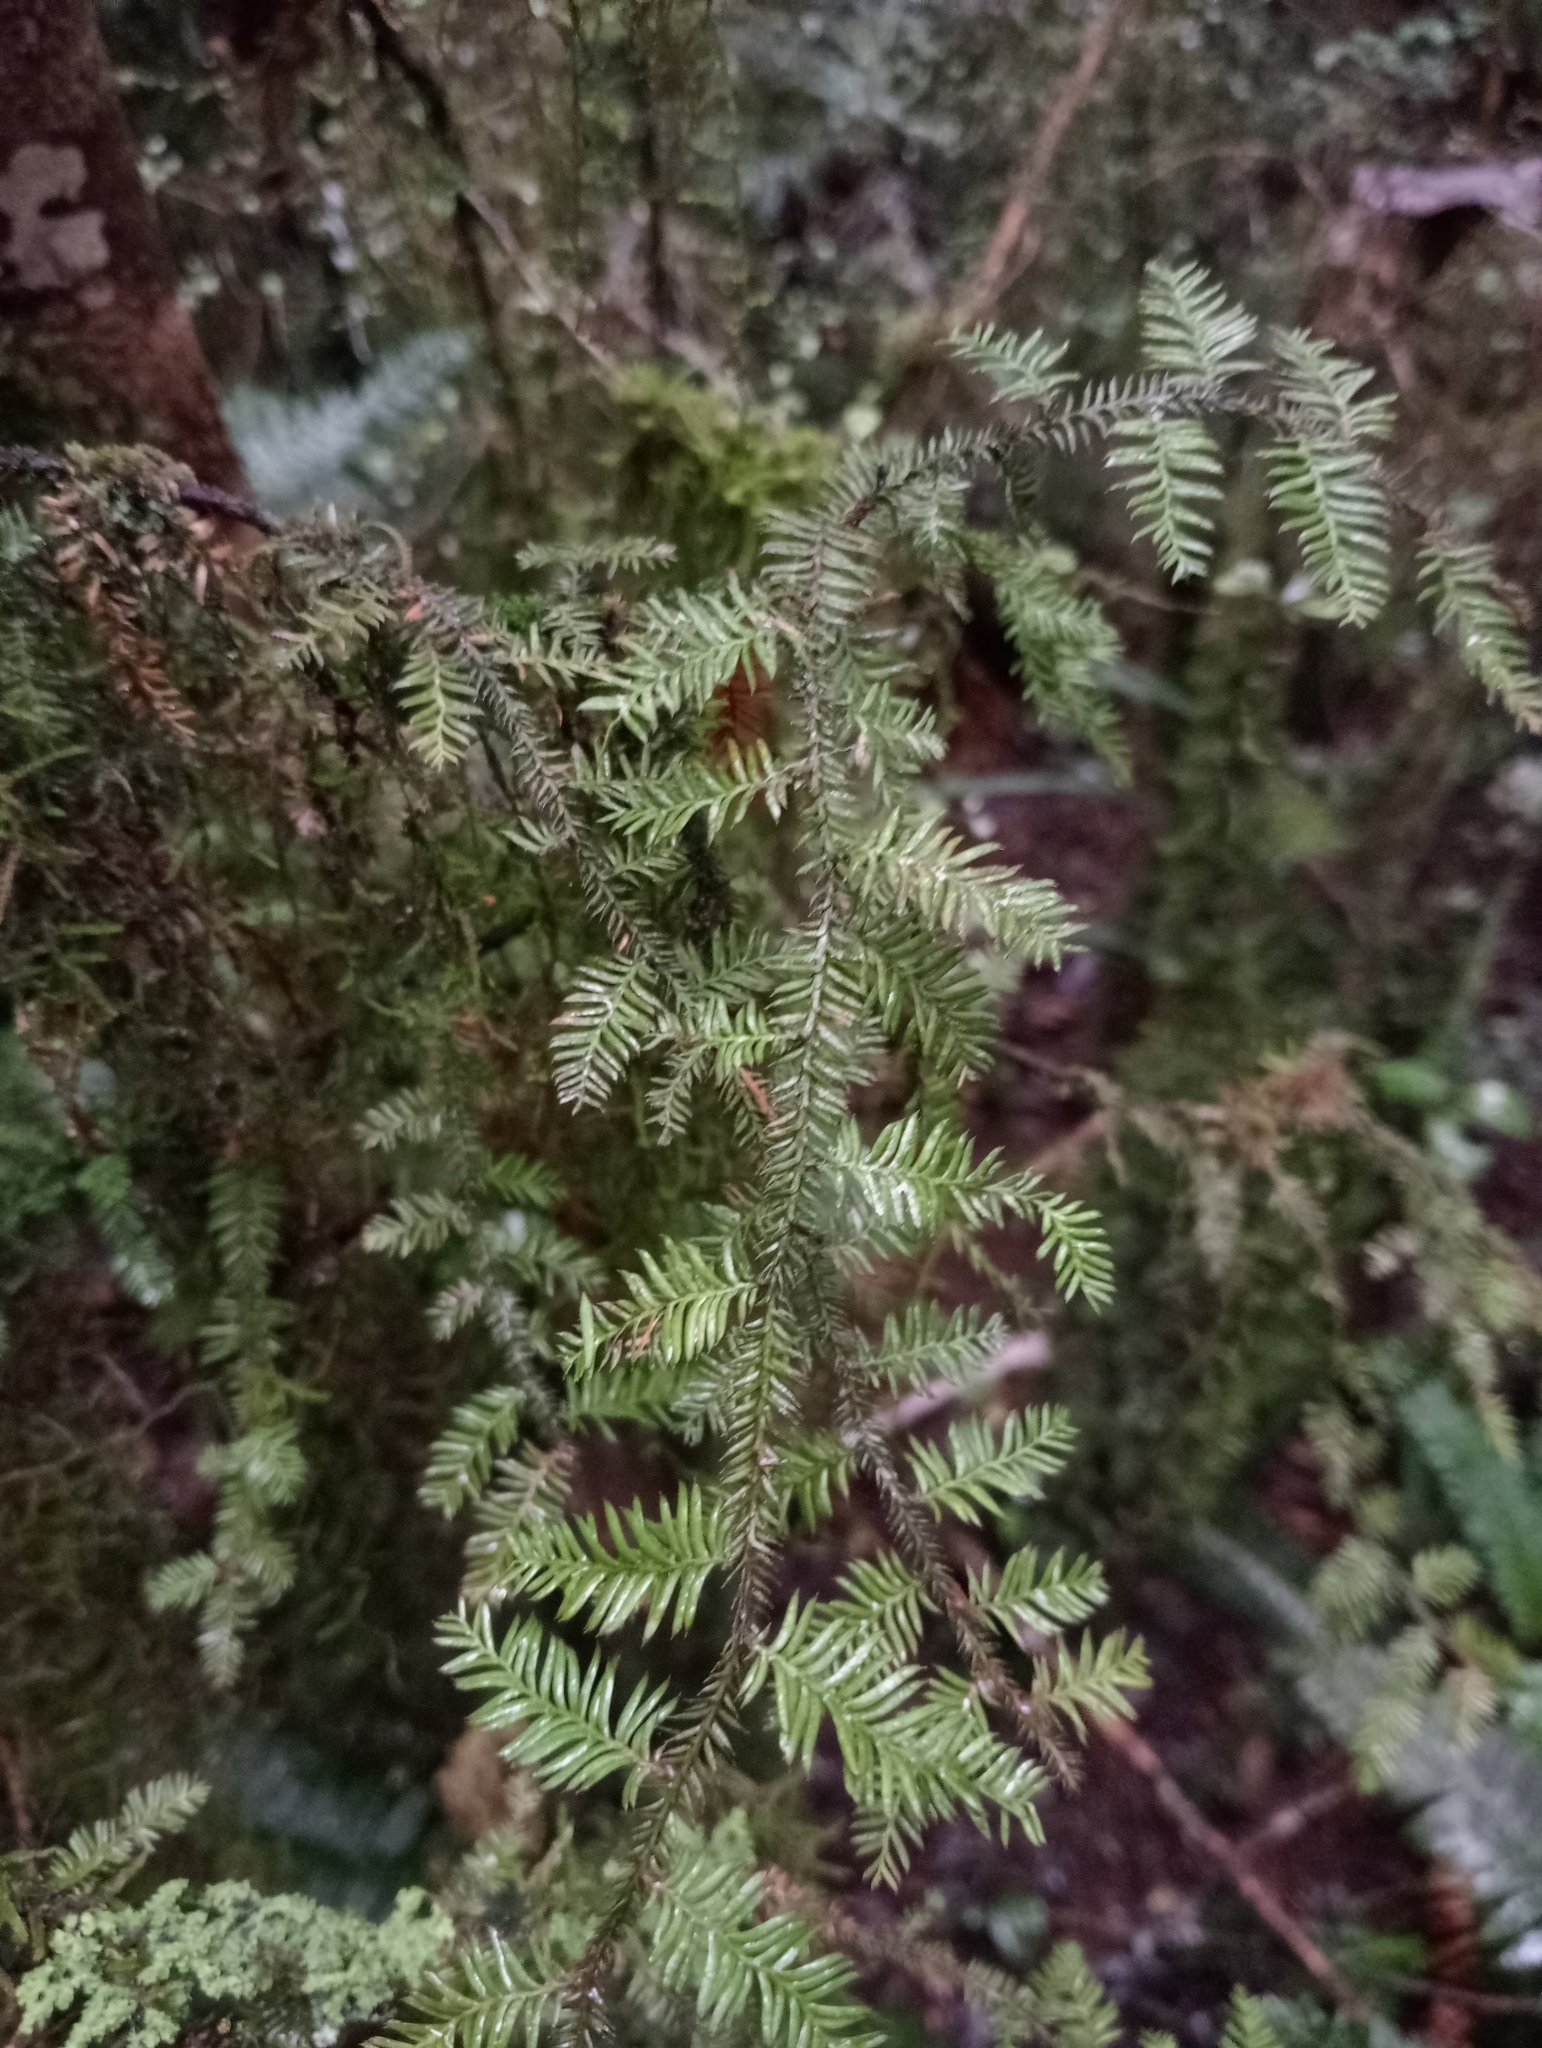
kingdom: Plantae
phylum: Tracheophyta
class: Pinopsida
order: Pinales
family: Podocarpaceae
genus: Dacrycarpus
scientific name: Dacrycarpus dacrydioides
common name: White pine
